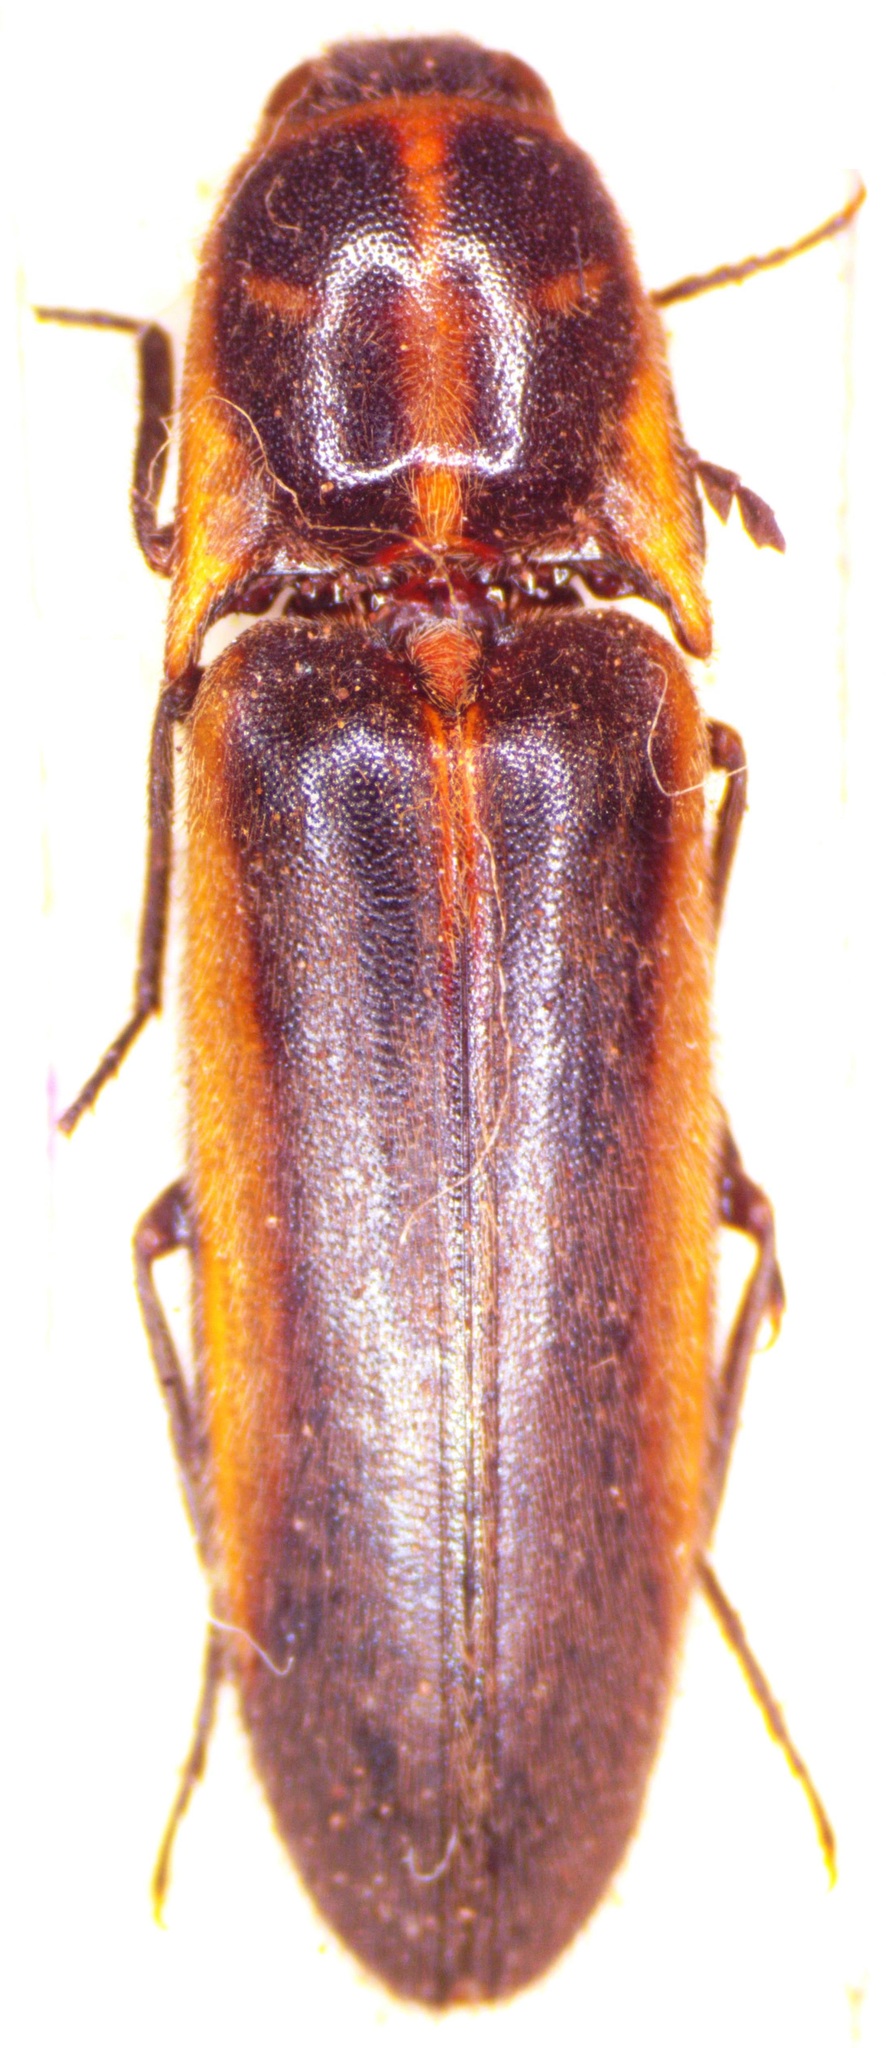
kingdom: Animalia
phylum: Arthropoda
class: Insecta
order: Coleoptera
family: Elateridae
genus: Probothrium
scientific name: Probothrium
